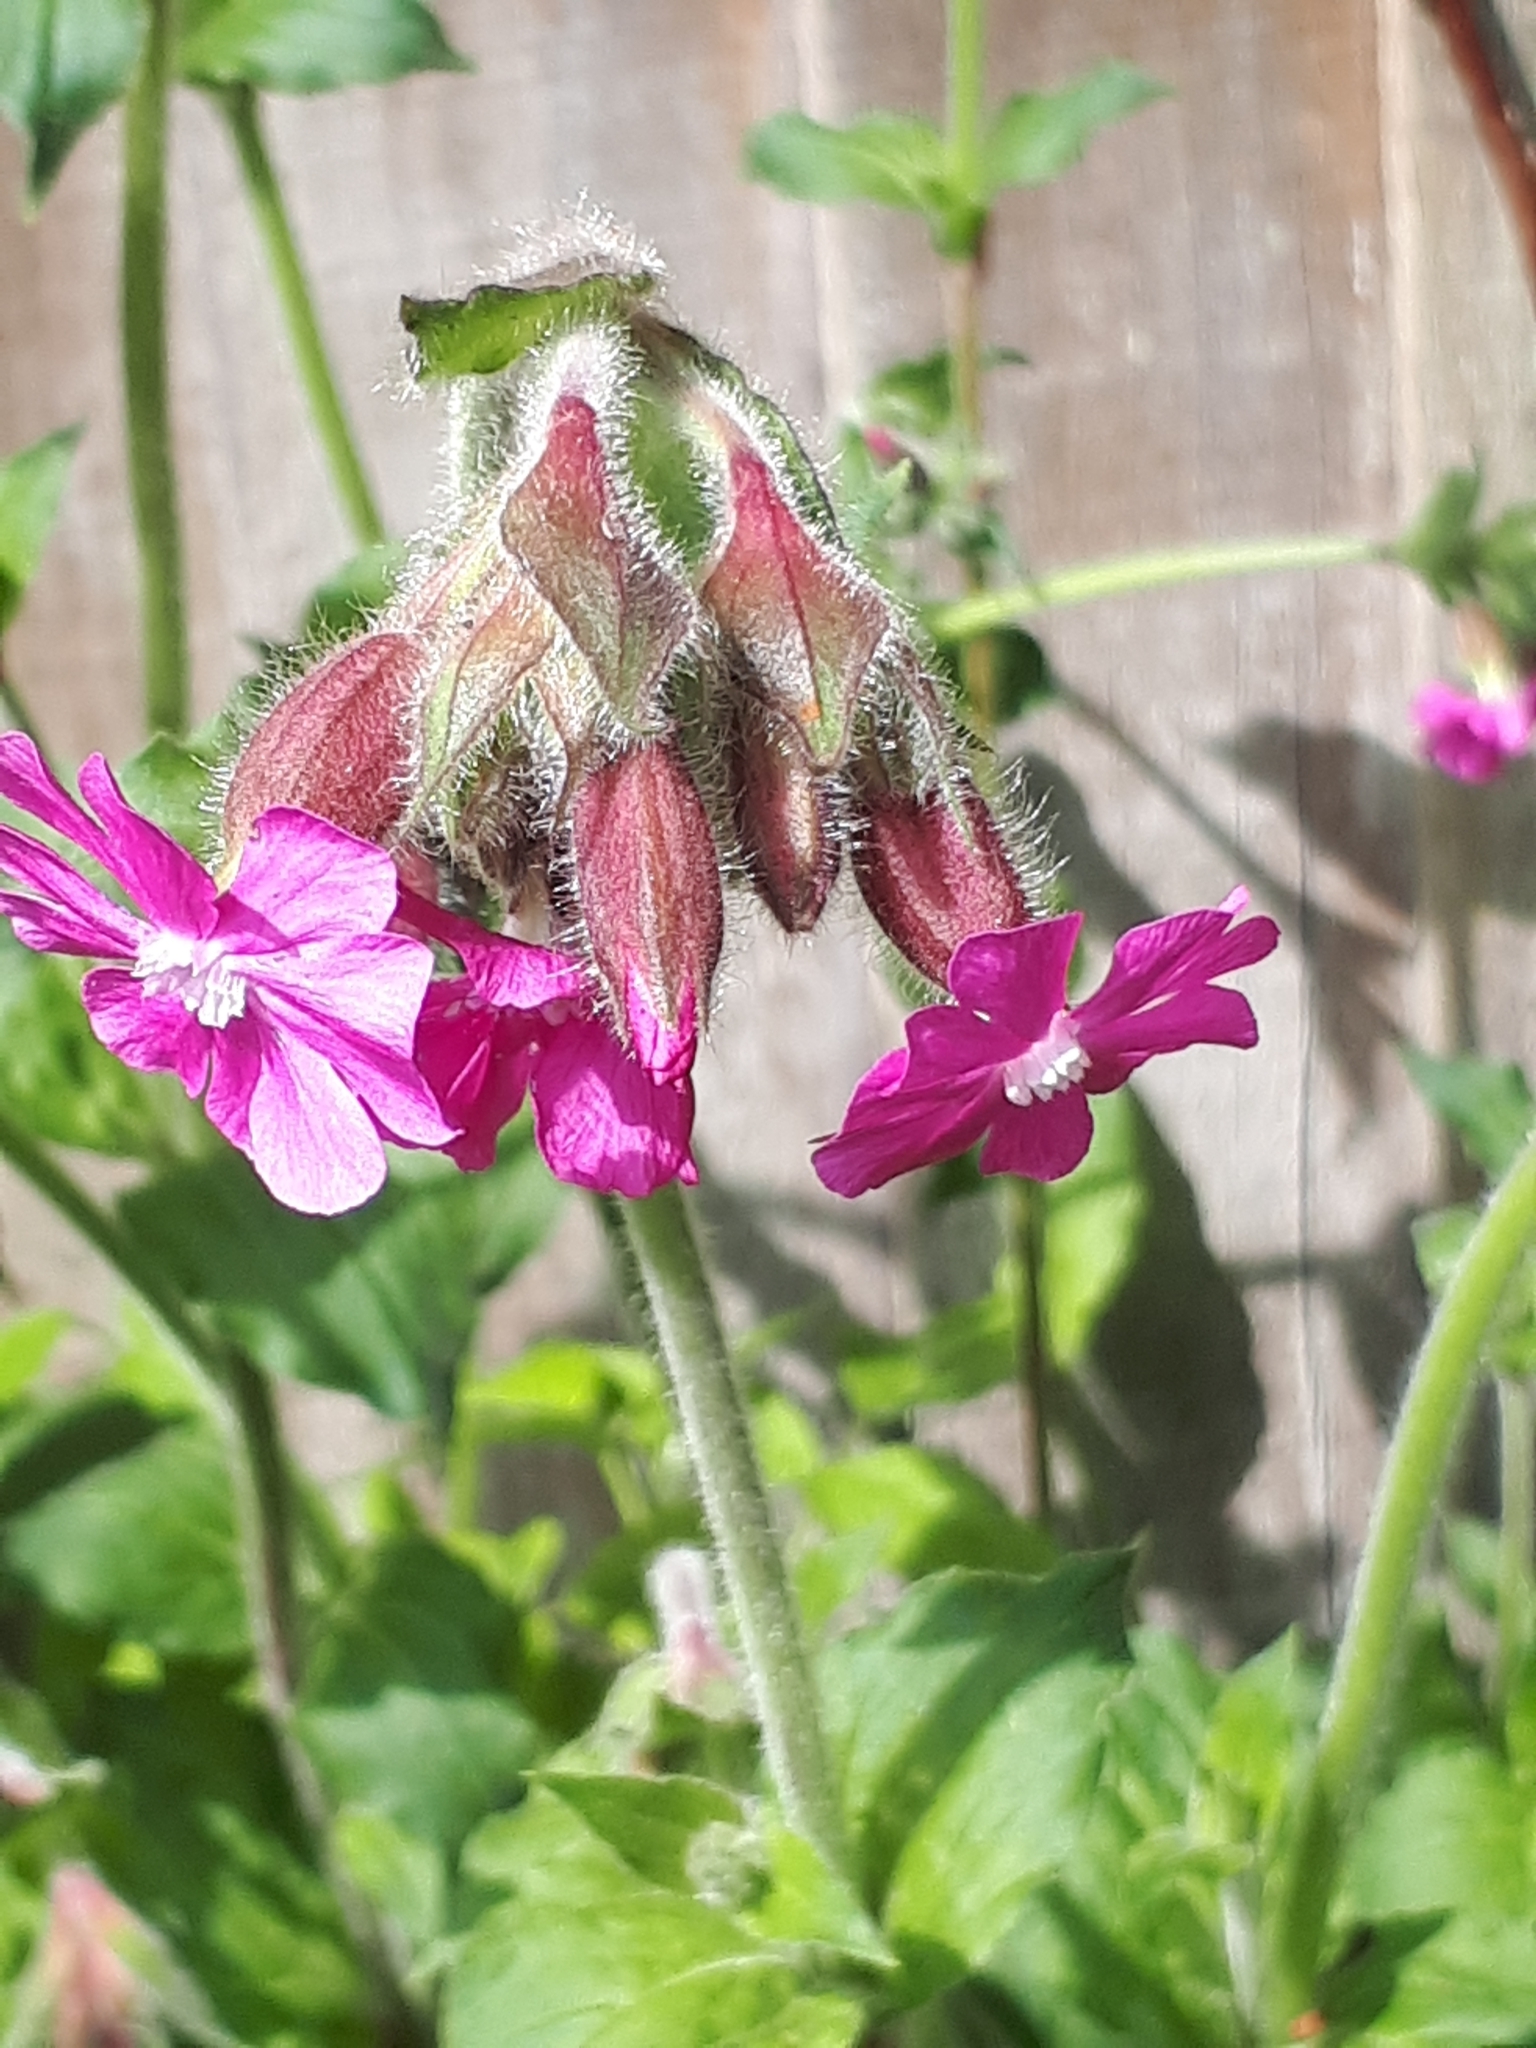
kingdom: Plantae
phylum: Tracheophyta
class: Magnoliopsida
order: Caryophyllales
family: Caryophyllaceae
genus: Silene
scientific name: Silene dioica
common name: Red campion
